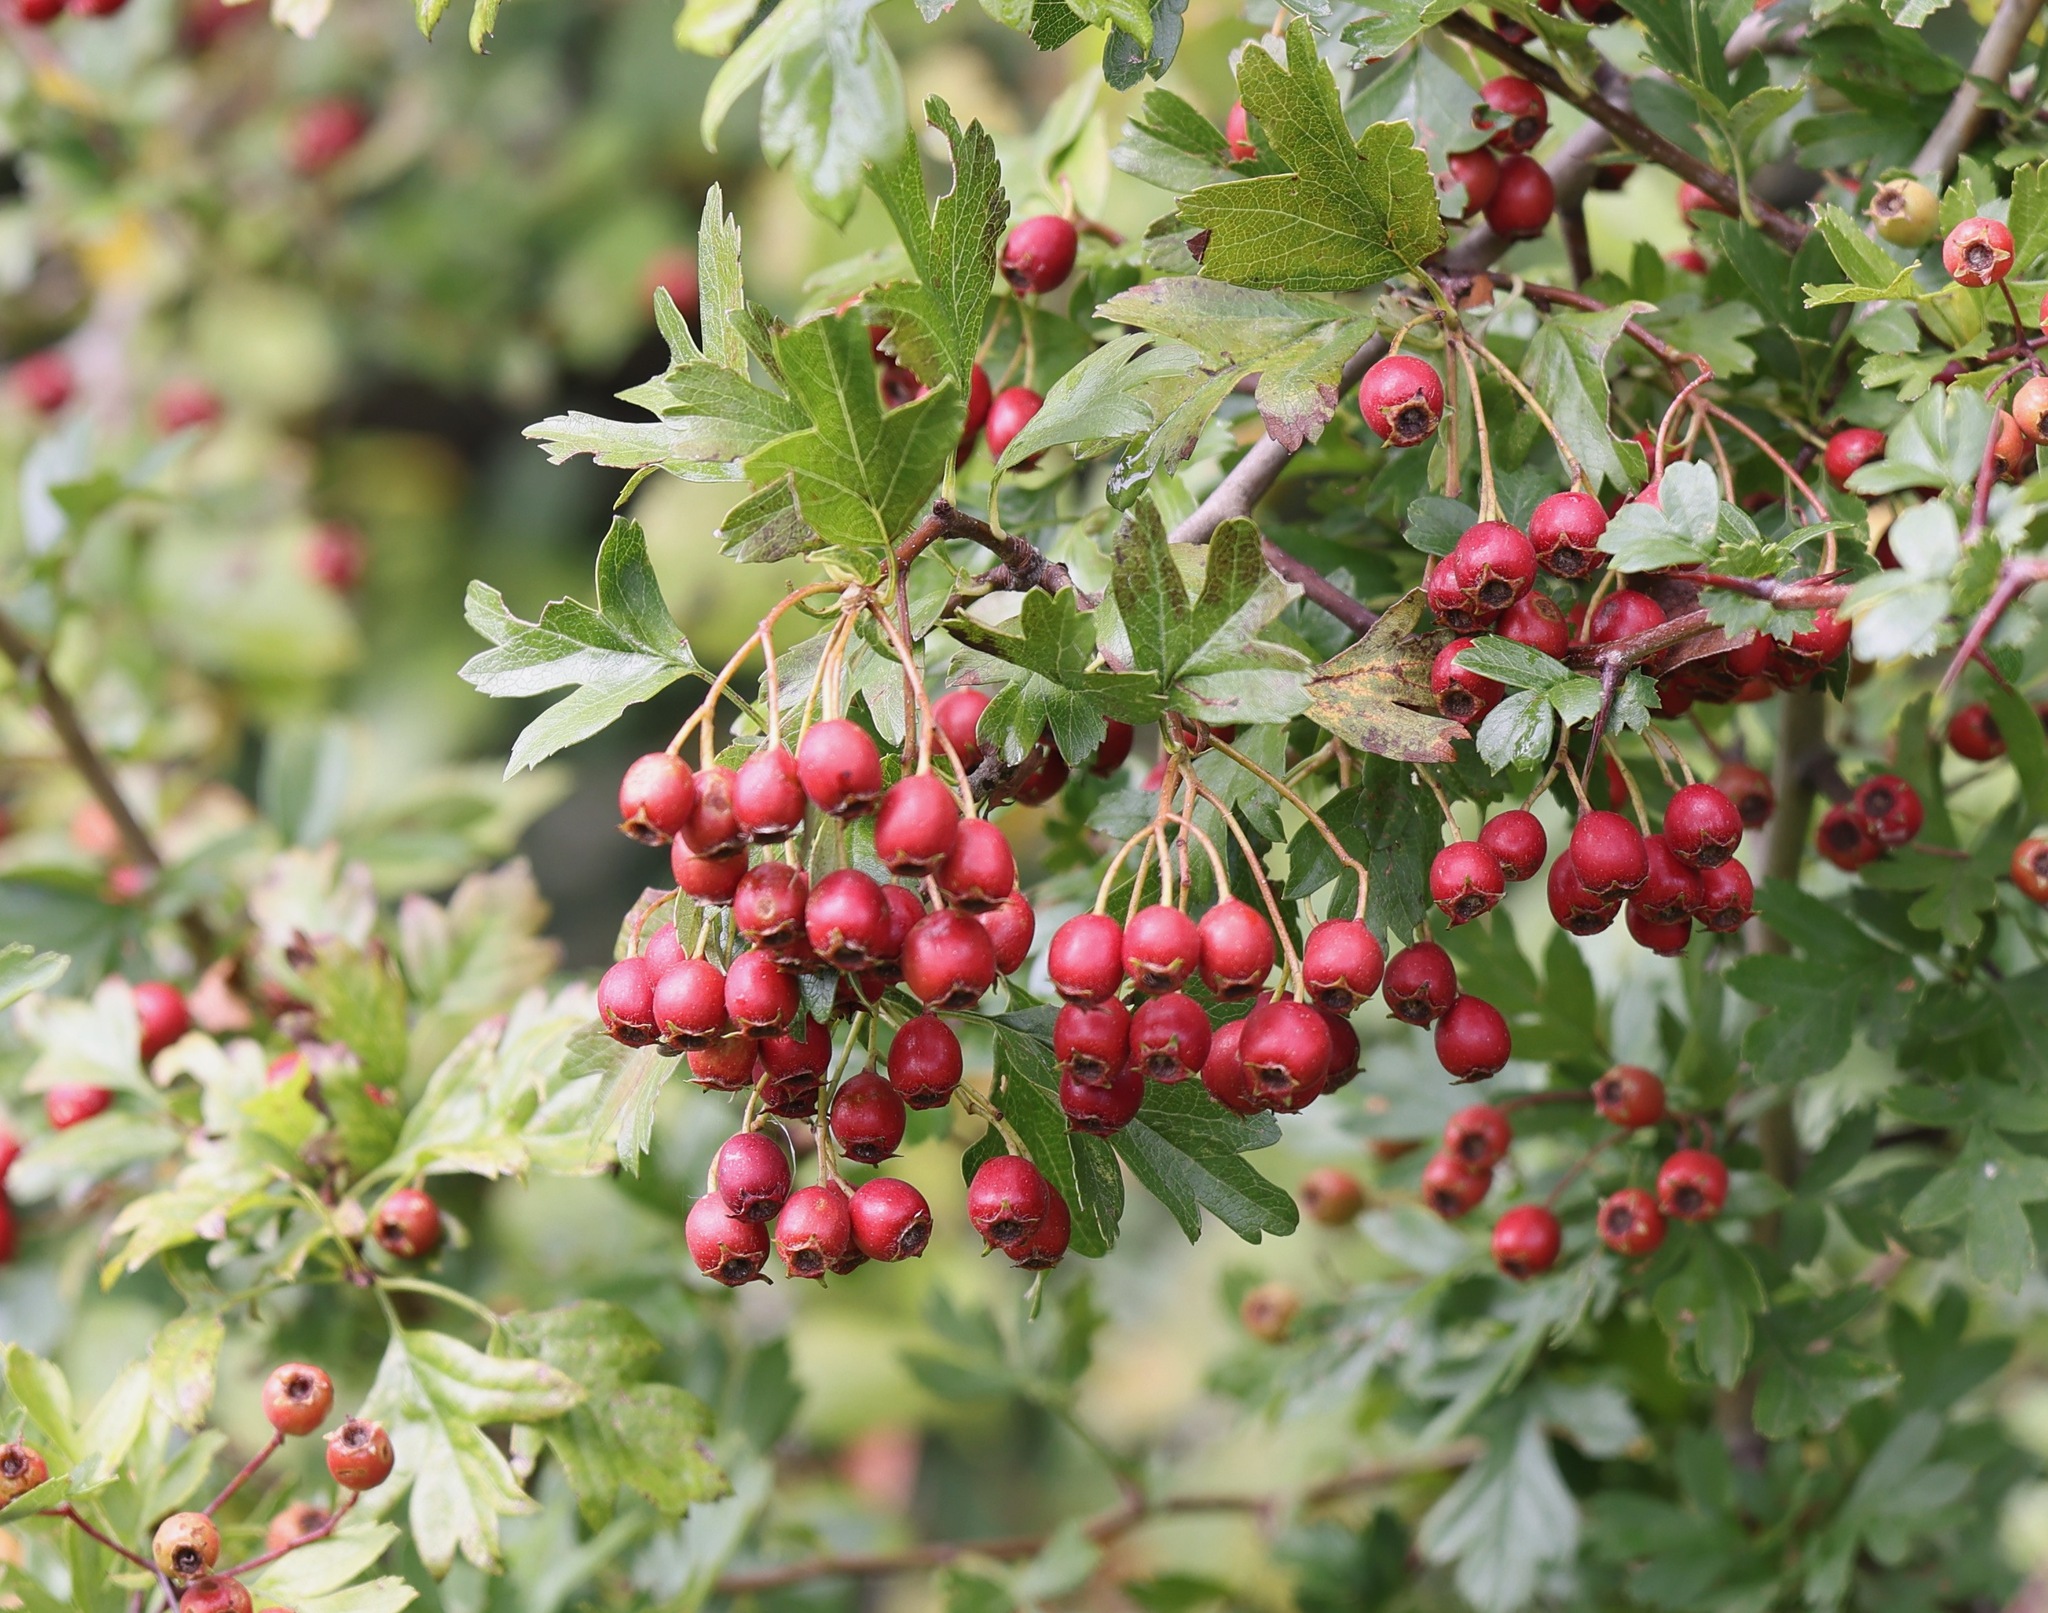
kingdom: Plantae
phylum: Tracheophyta
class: Magnoliopsida
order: Rosales
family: Rosaceae
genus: Crataegus
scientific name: Crataegus monogyna
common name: Hawthorn
